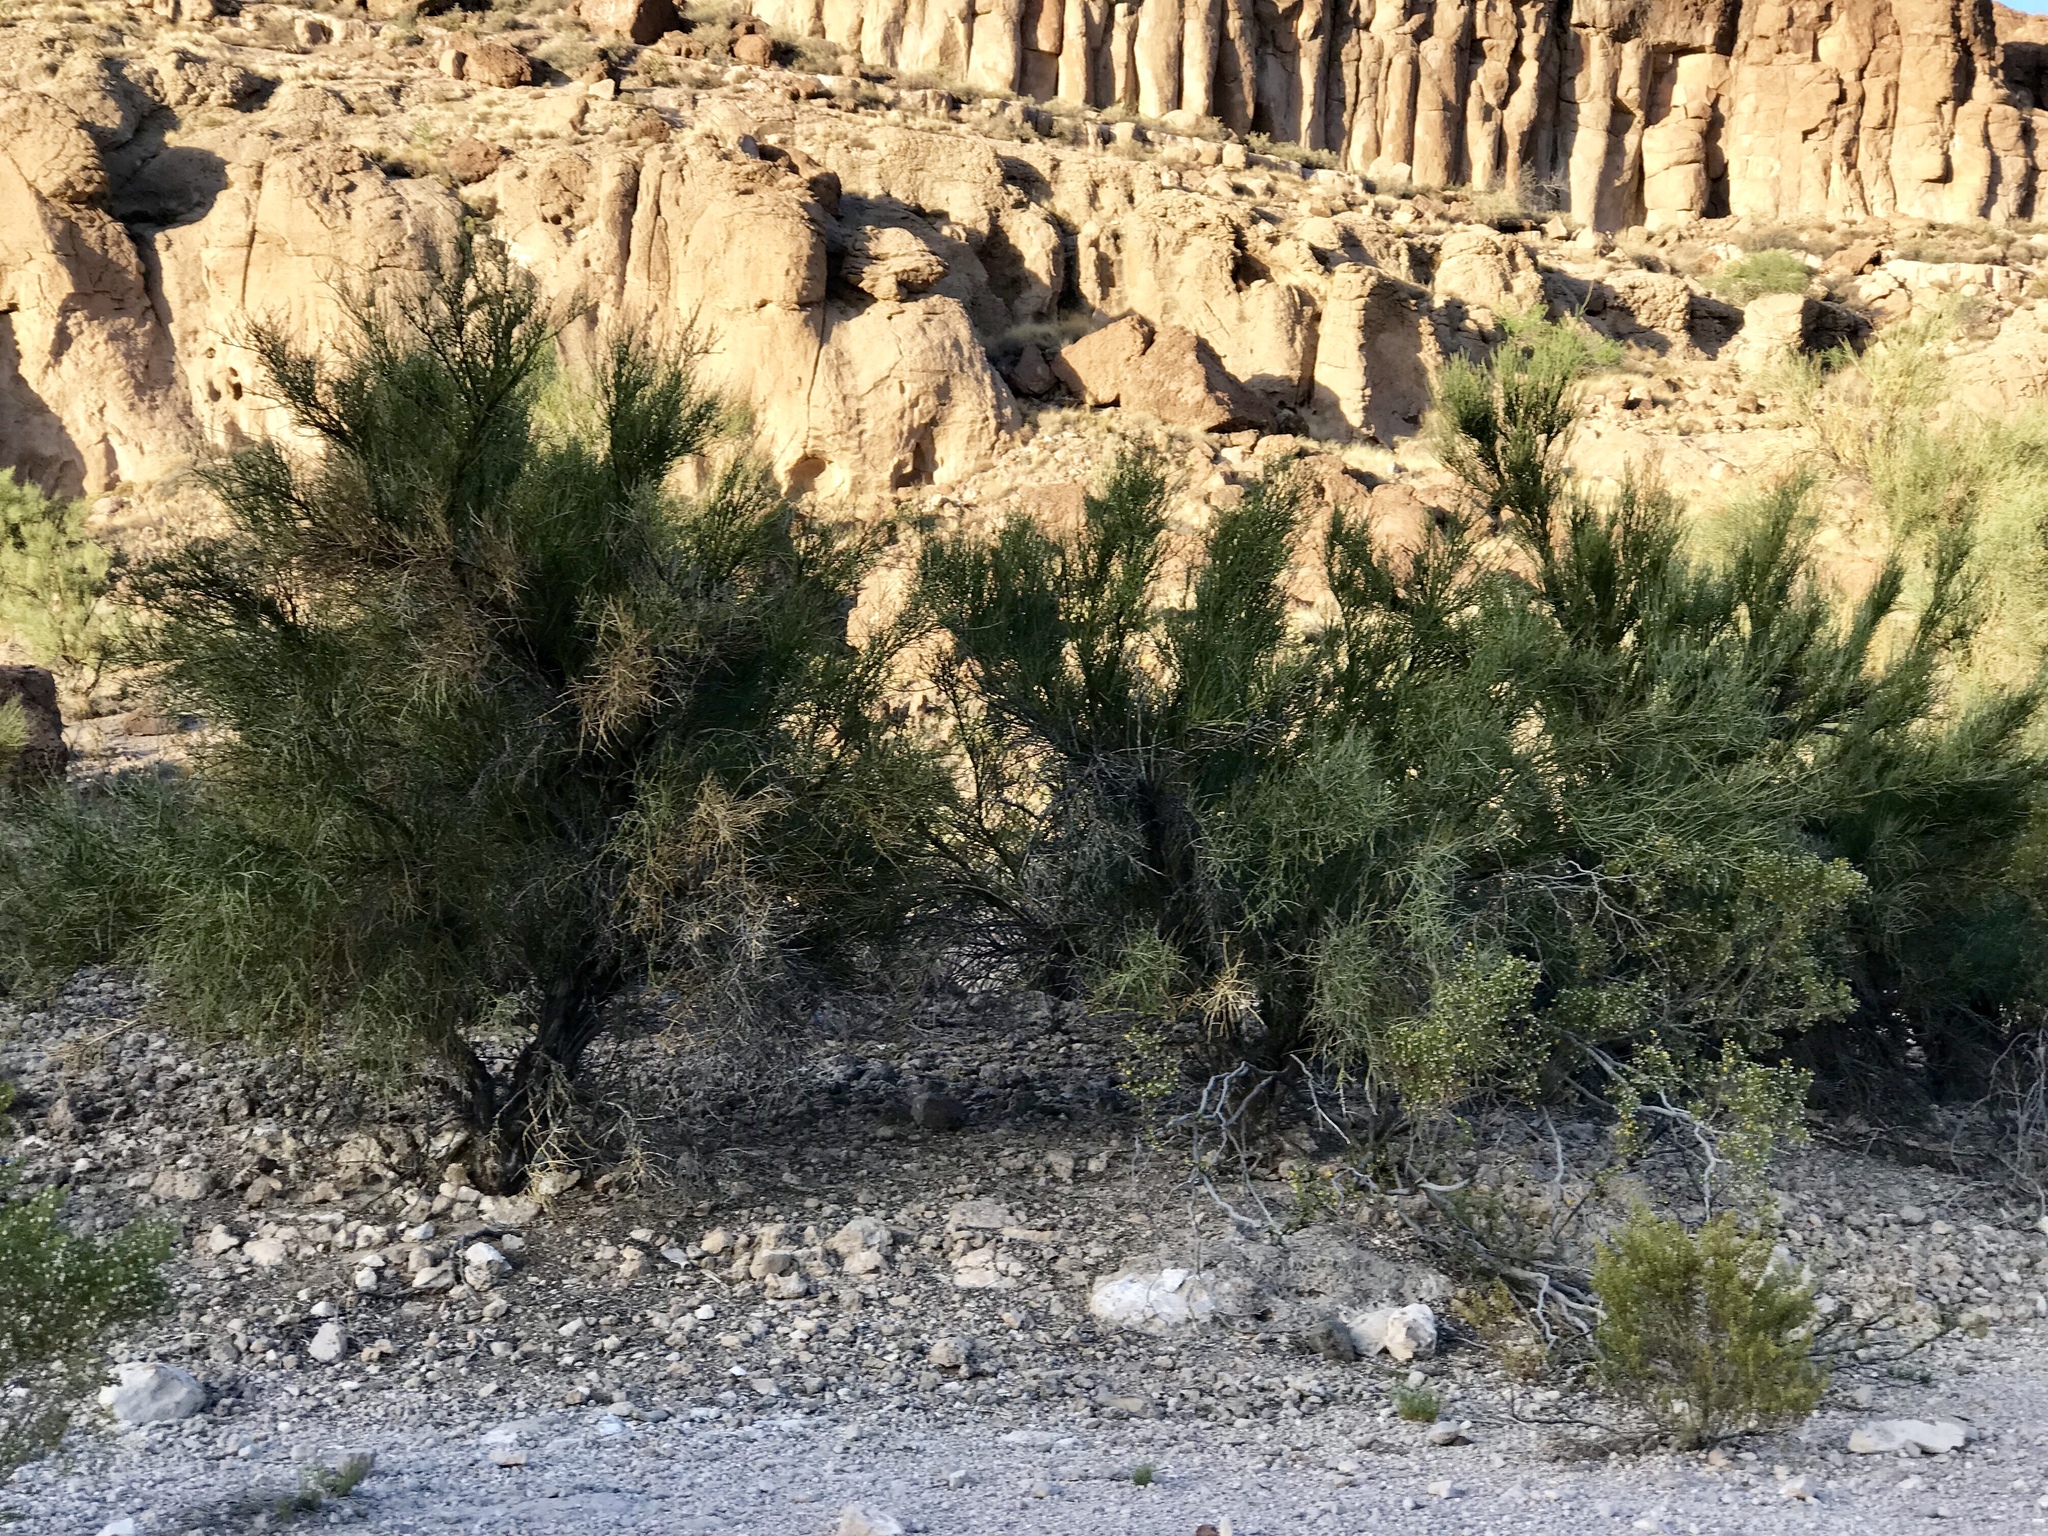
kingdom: Plantae
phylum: Tracheophyta
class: Magnoliopsida
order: Celastrales
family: Celastraceae
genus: Canotia
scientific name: Canotia holacantha
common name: Crucifixion thorns
